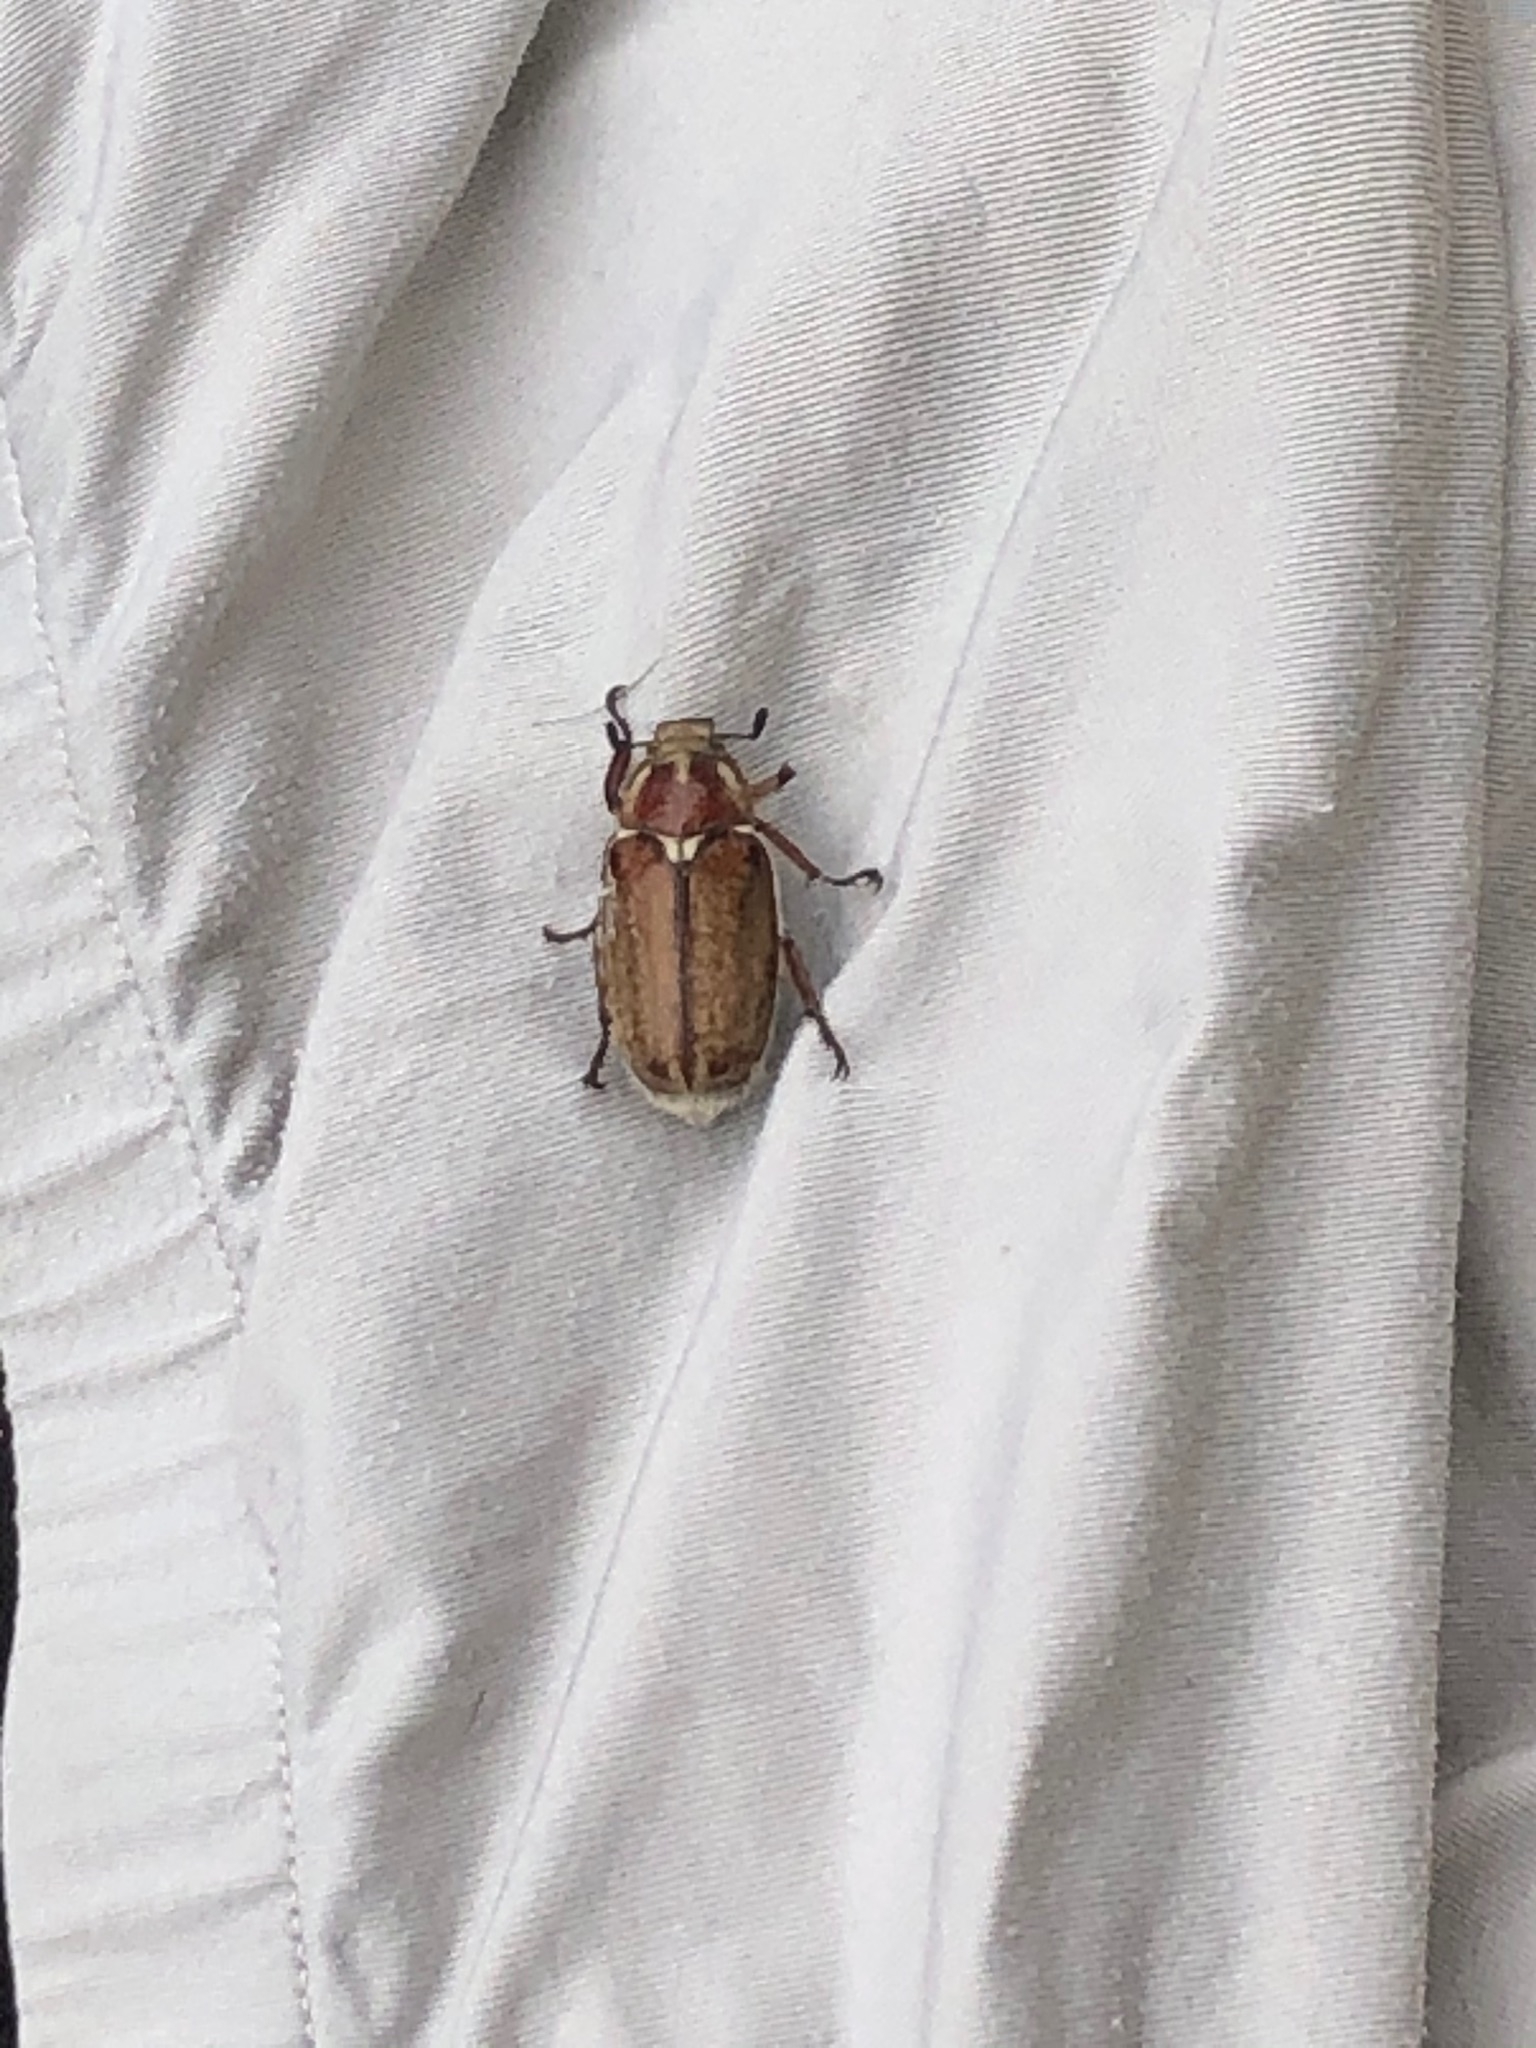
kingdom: Animalia
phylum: Arthropoda
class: Insecta
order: Coleoptera
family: Scarabaeidae
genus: Anoxia
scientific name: Anoxia villosa
